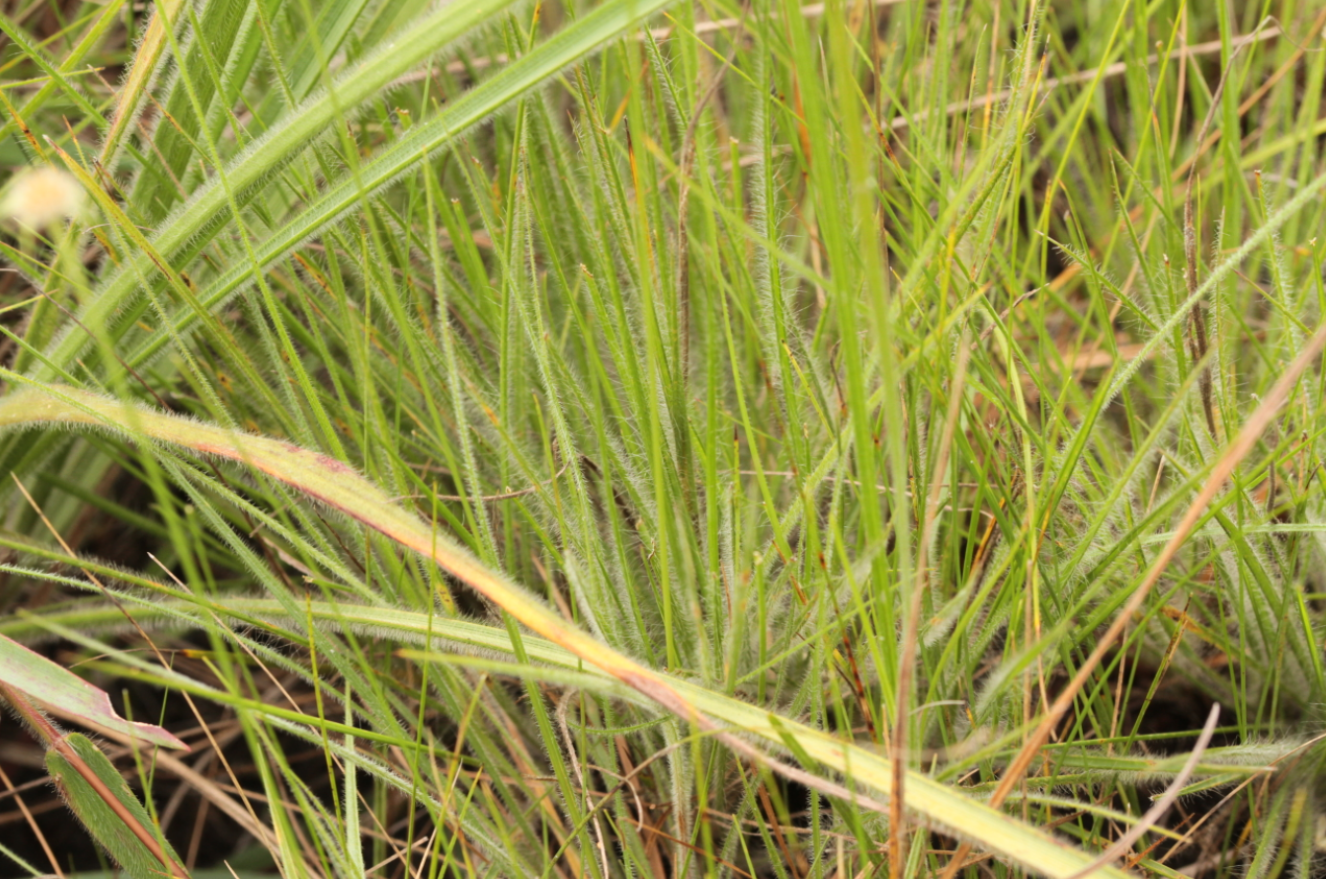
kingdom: Plantae
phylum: Tracheophyta
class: Liliopsida
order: Poales
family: Cyperaceae
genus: Rhynchospora
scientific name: Rhynchospora barbata
